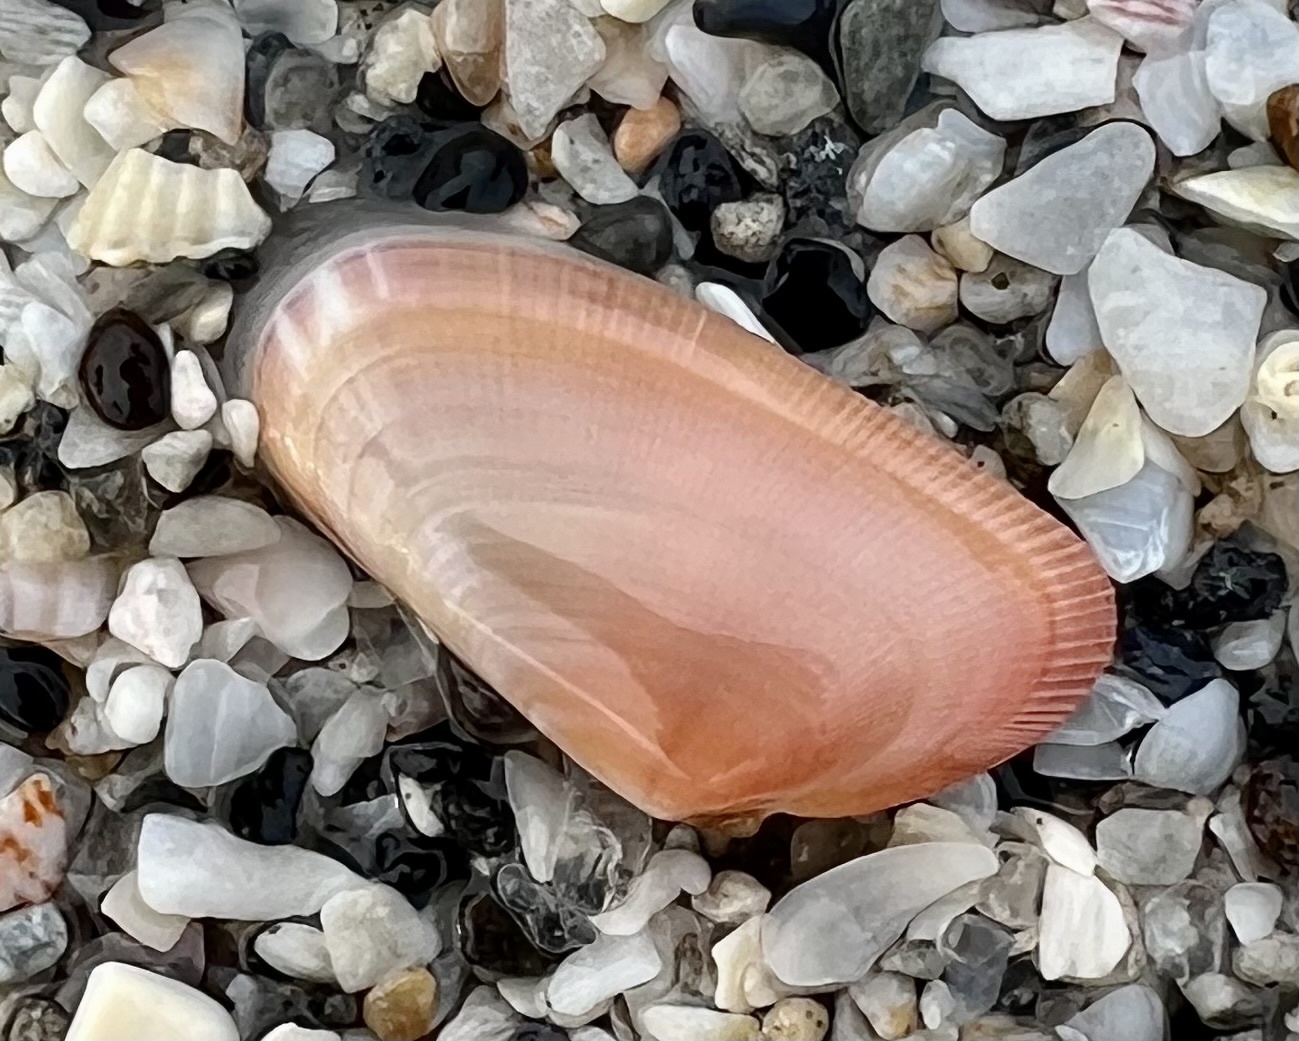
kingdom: Animalia
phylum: Mollusca
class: Bivalvia
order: Cardiida
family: Donacidae
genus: Donax
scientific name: Donax variabilis
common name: Butterfly shell
